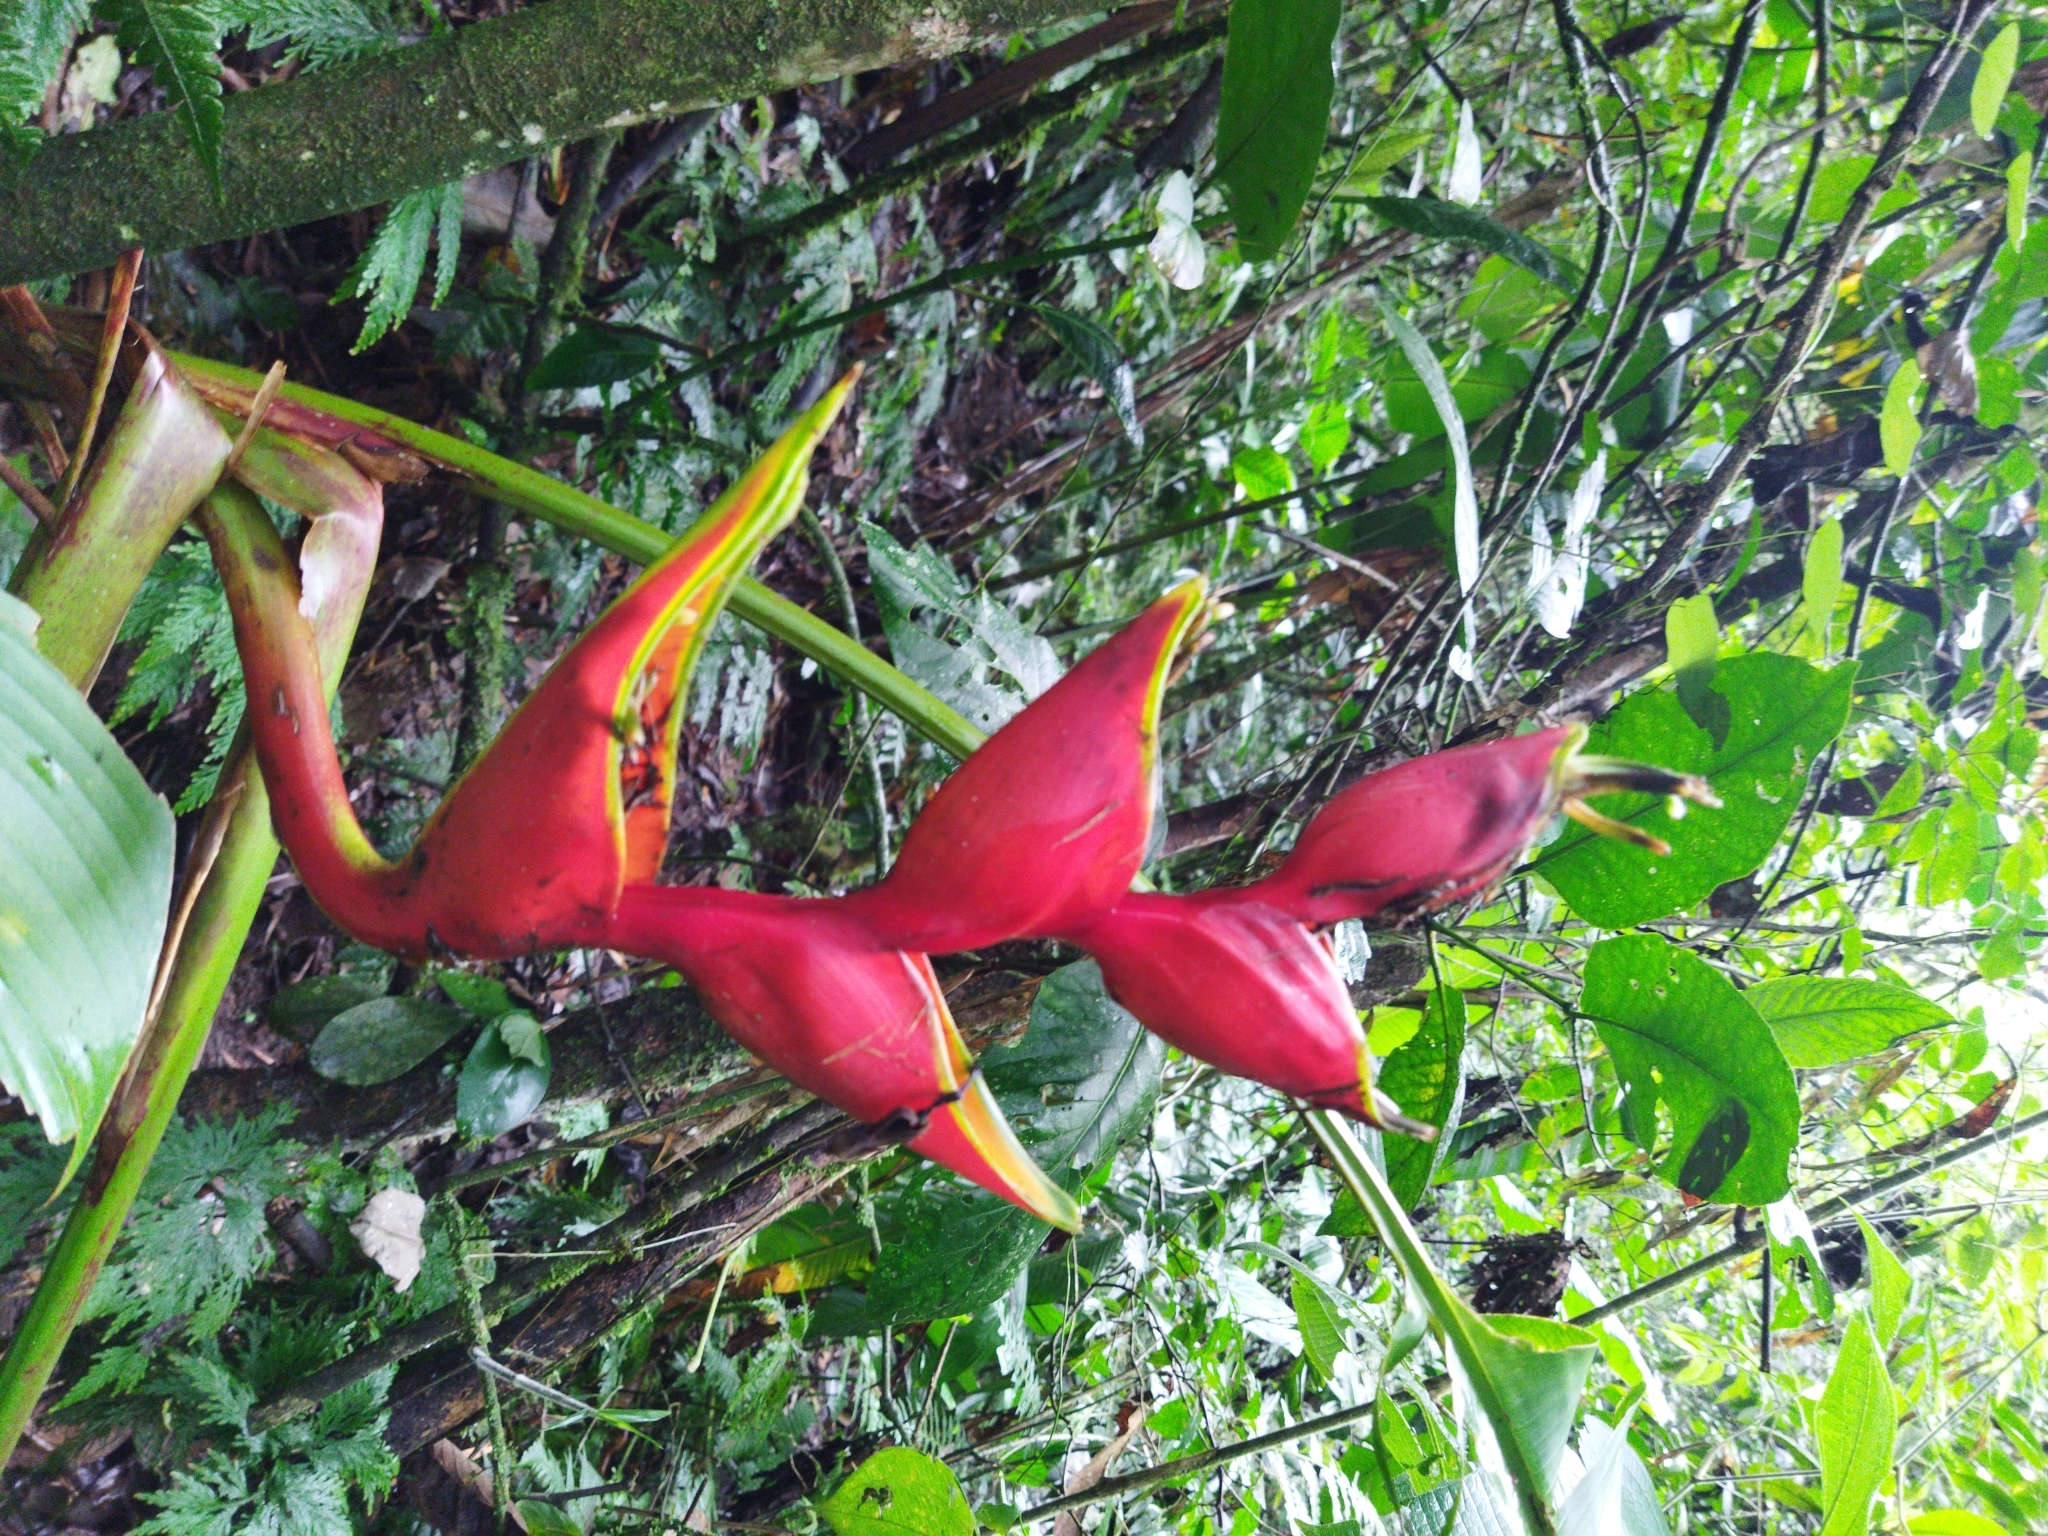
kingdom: Plantae
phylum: Tracheophyta
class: Liliopsida
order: Zingiberales
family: Heliconiaceae
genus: Heliconia
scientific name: Heliconia bihai
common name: Macaw flower
